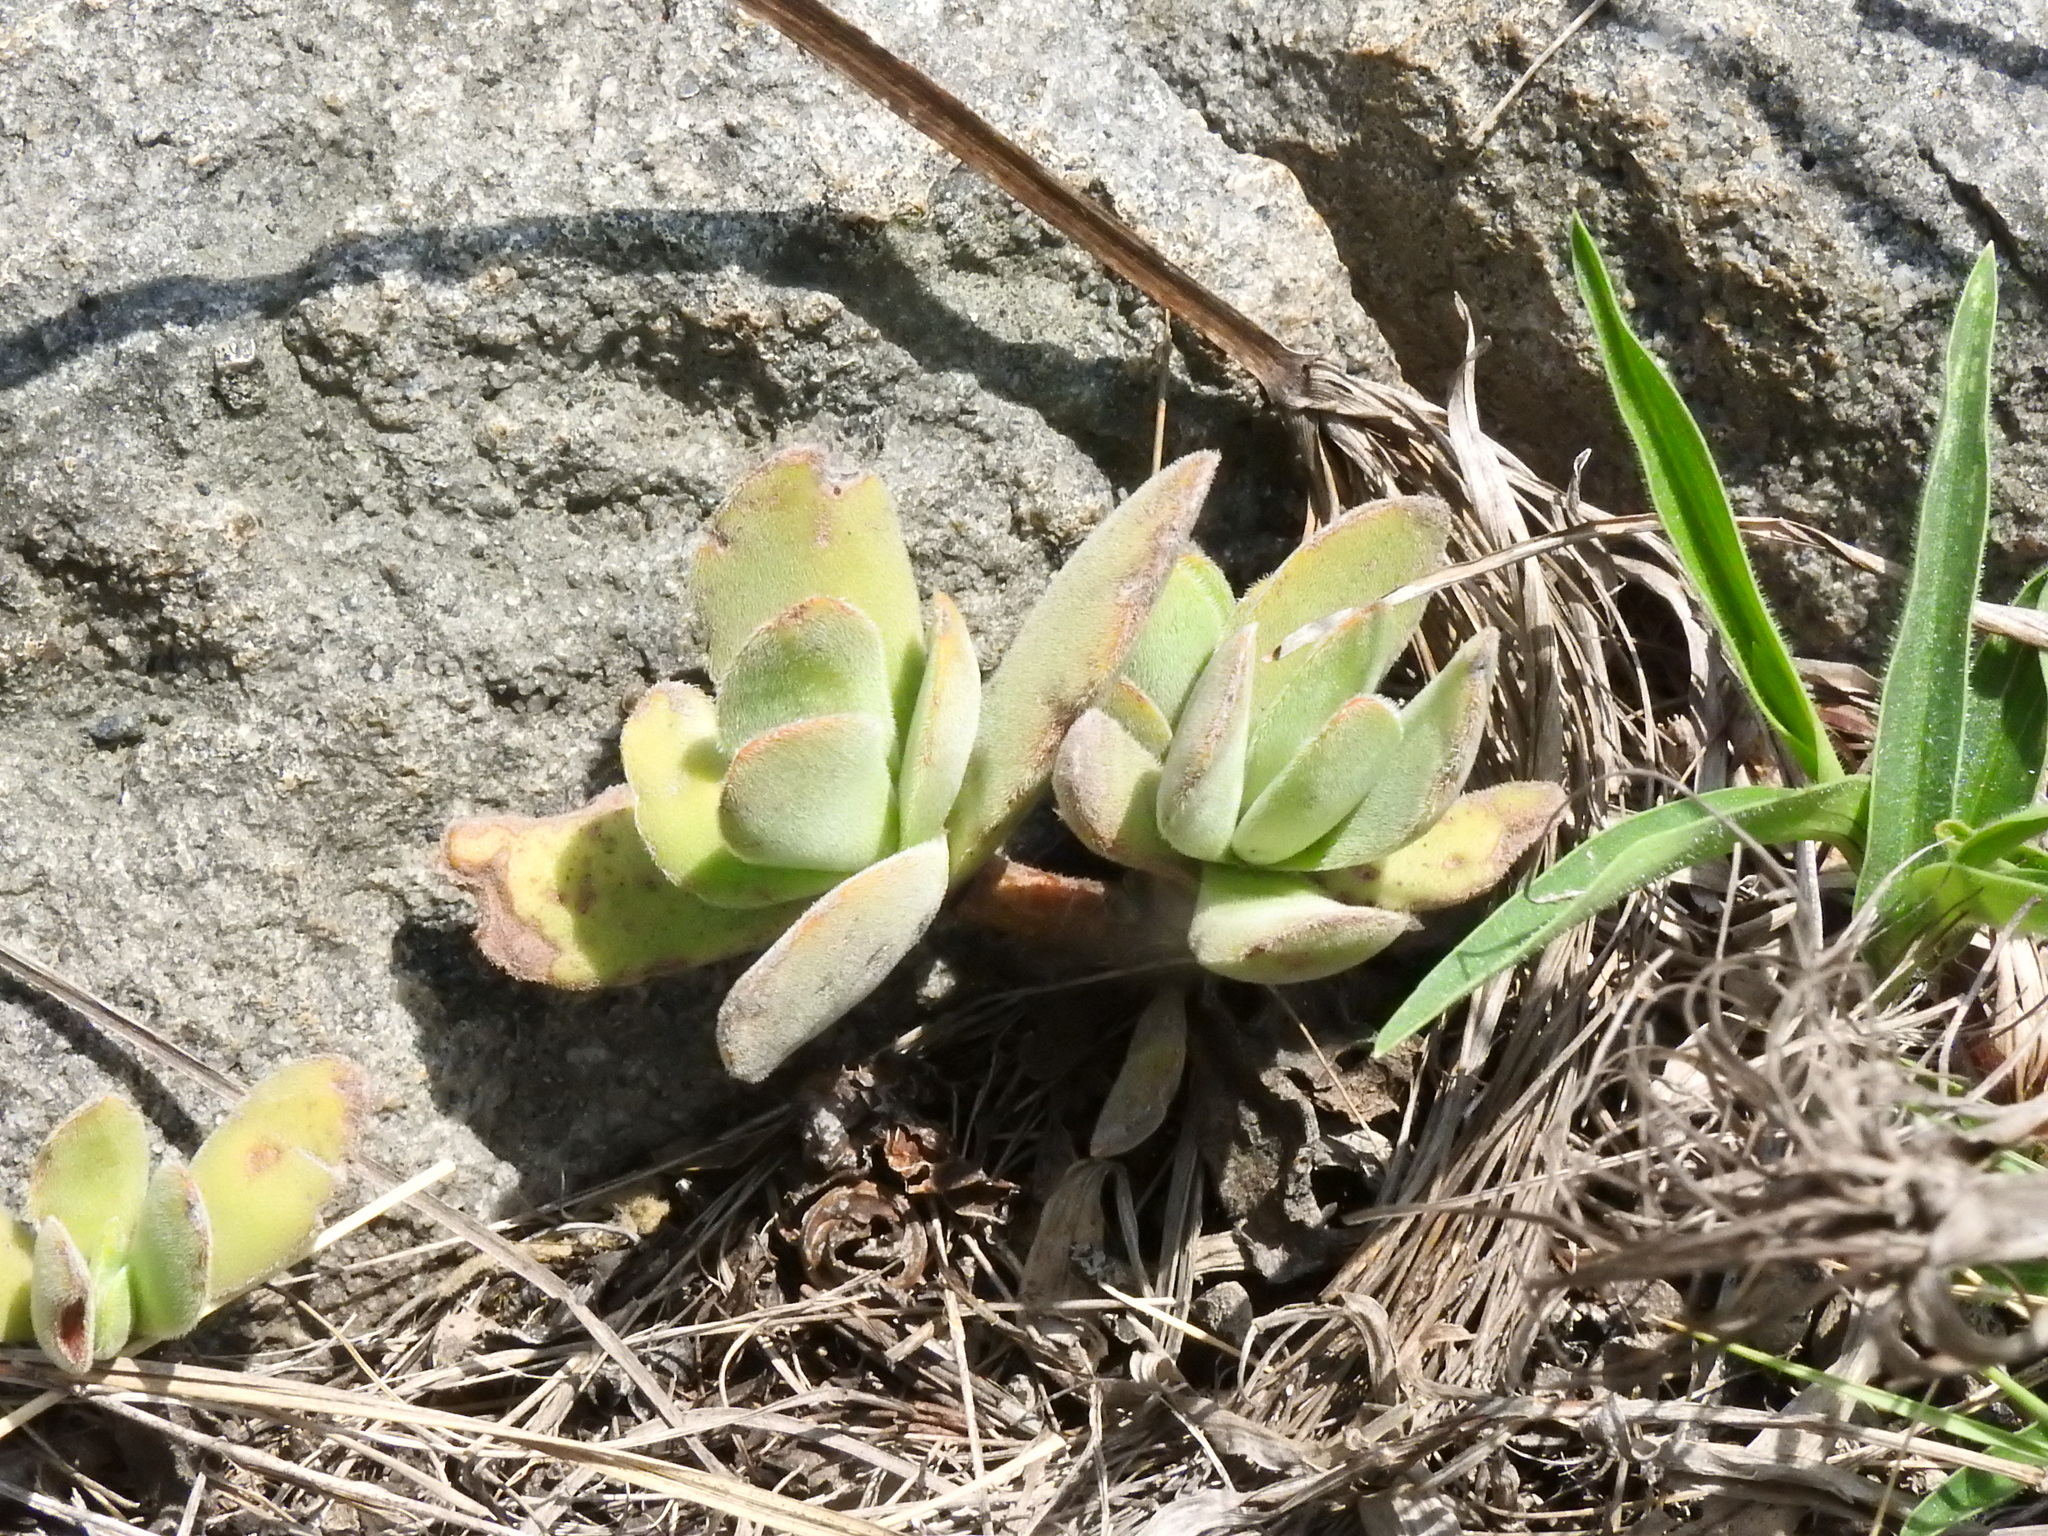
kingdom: Plantae
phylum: Tracheophyta
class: Magnoliopsida
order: Saxifragales
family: Crassulaceae
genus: Crassula
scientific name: Crassula globularioides
